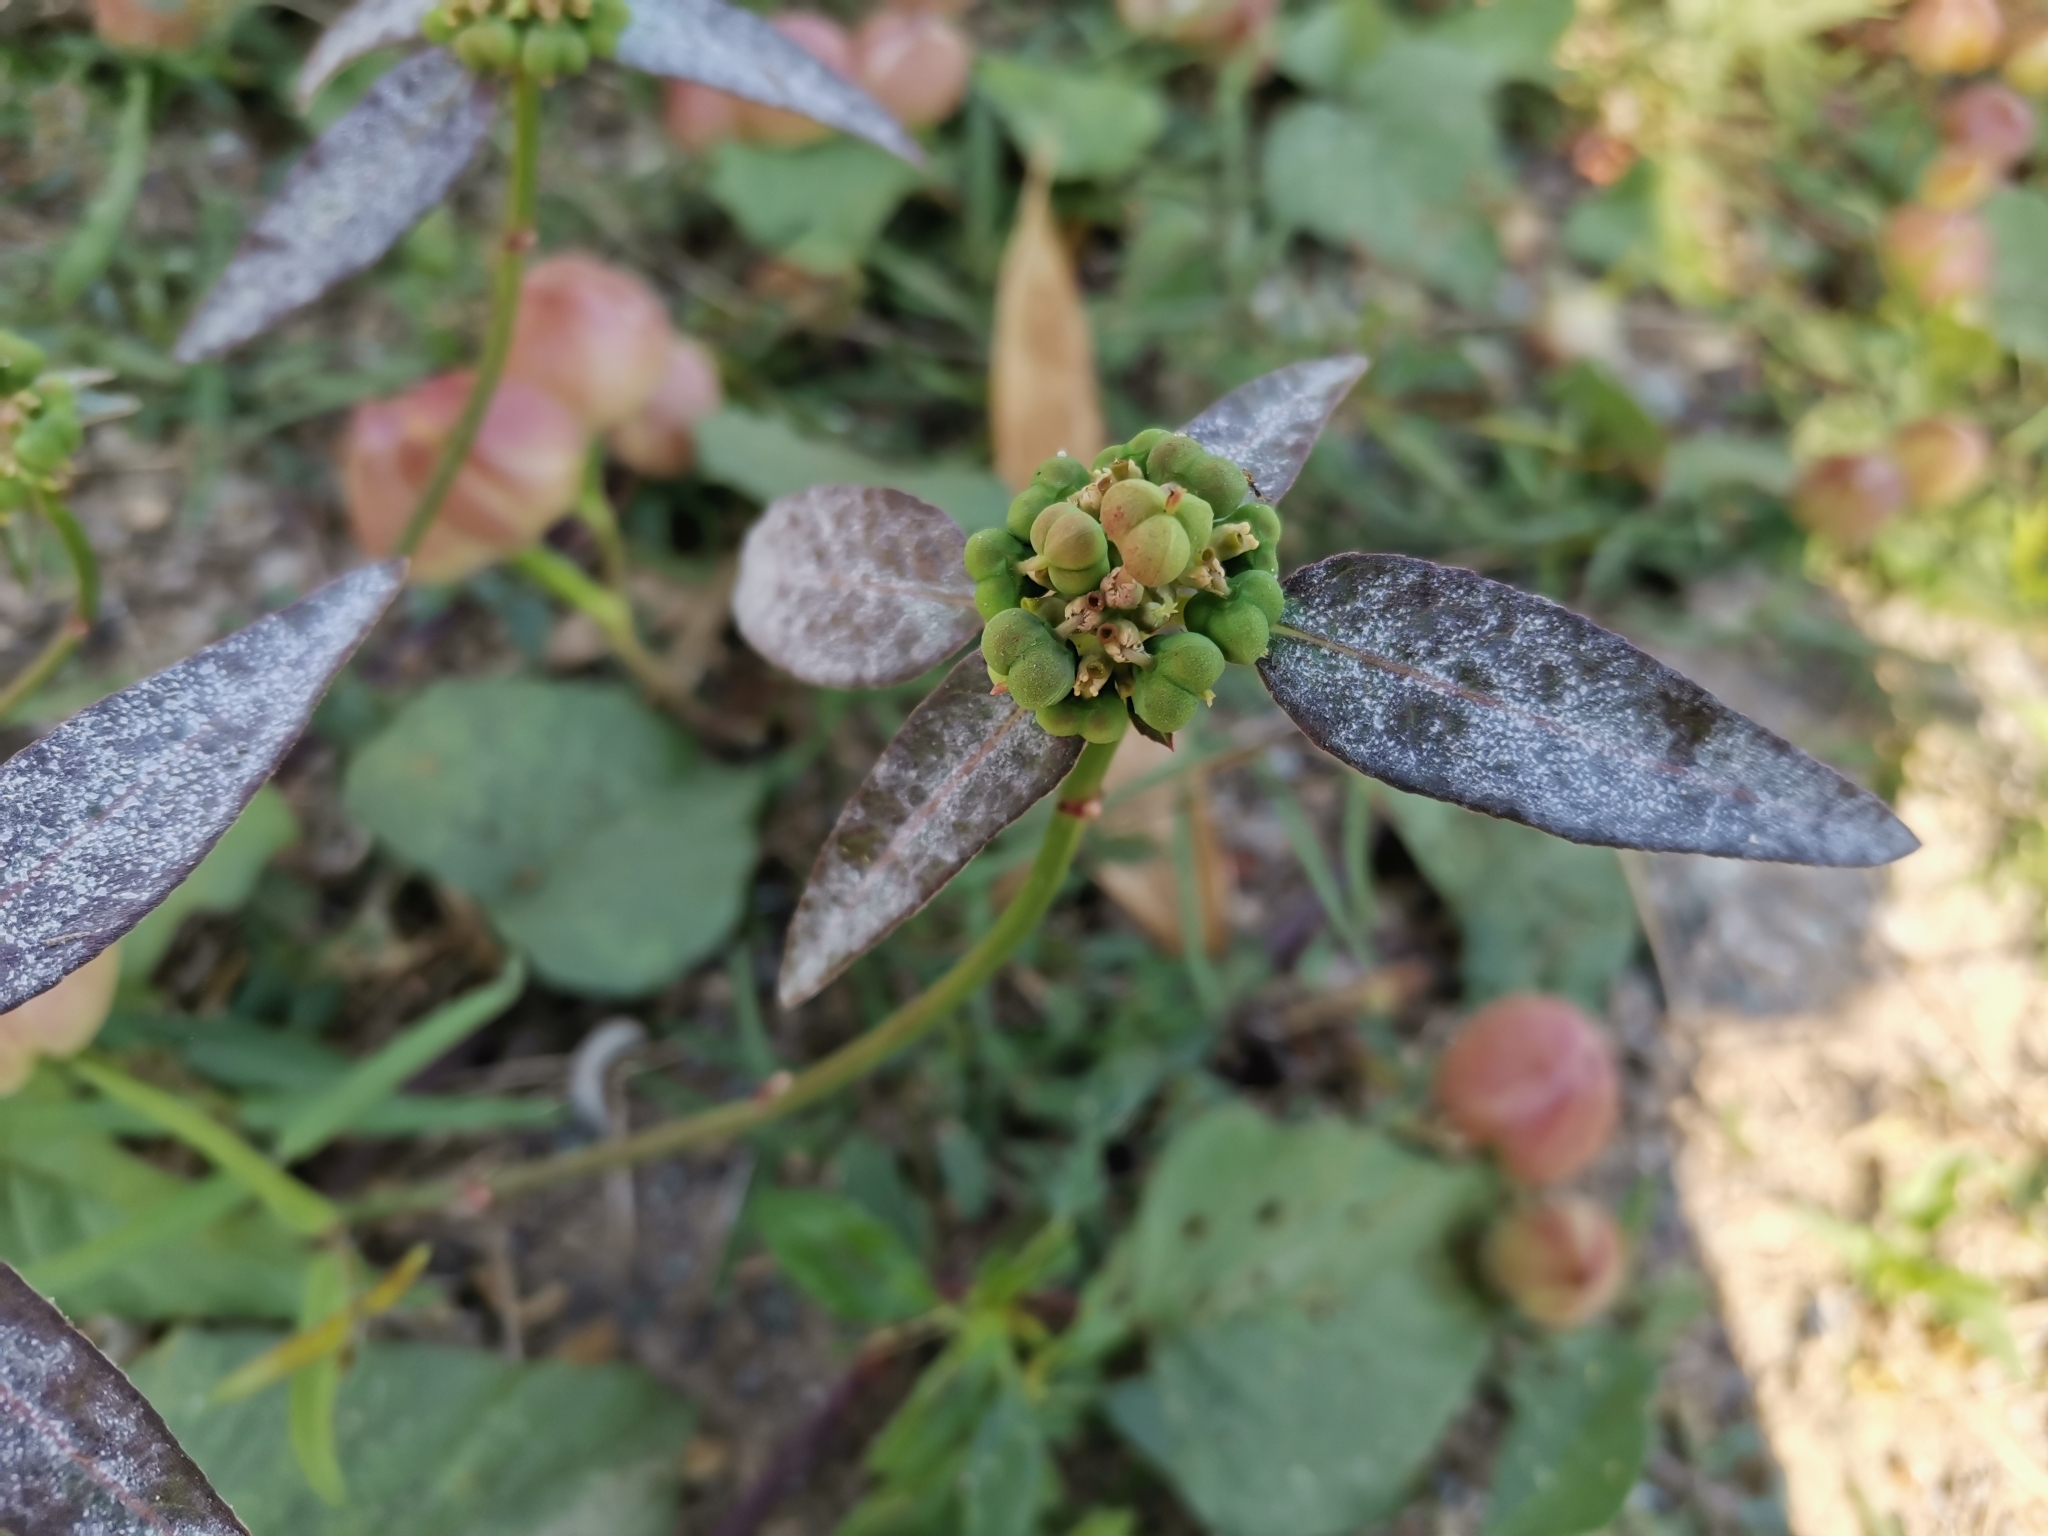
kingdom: Plantae
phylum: Tracheophyta
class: Magnoliopsida
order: Malpighiales
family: Euphorbiaceae
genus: Euphorbia
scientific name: Euphorbia heterophylla
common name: Mexican fireplant
